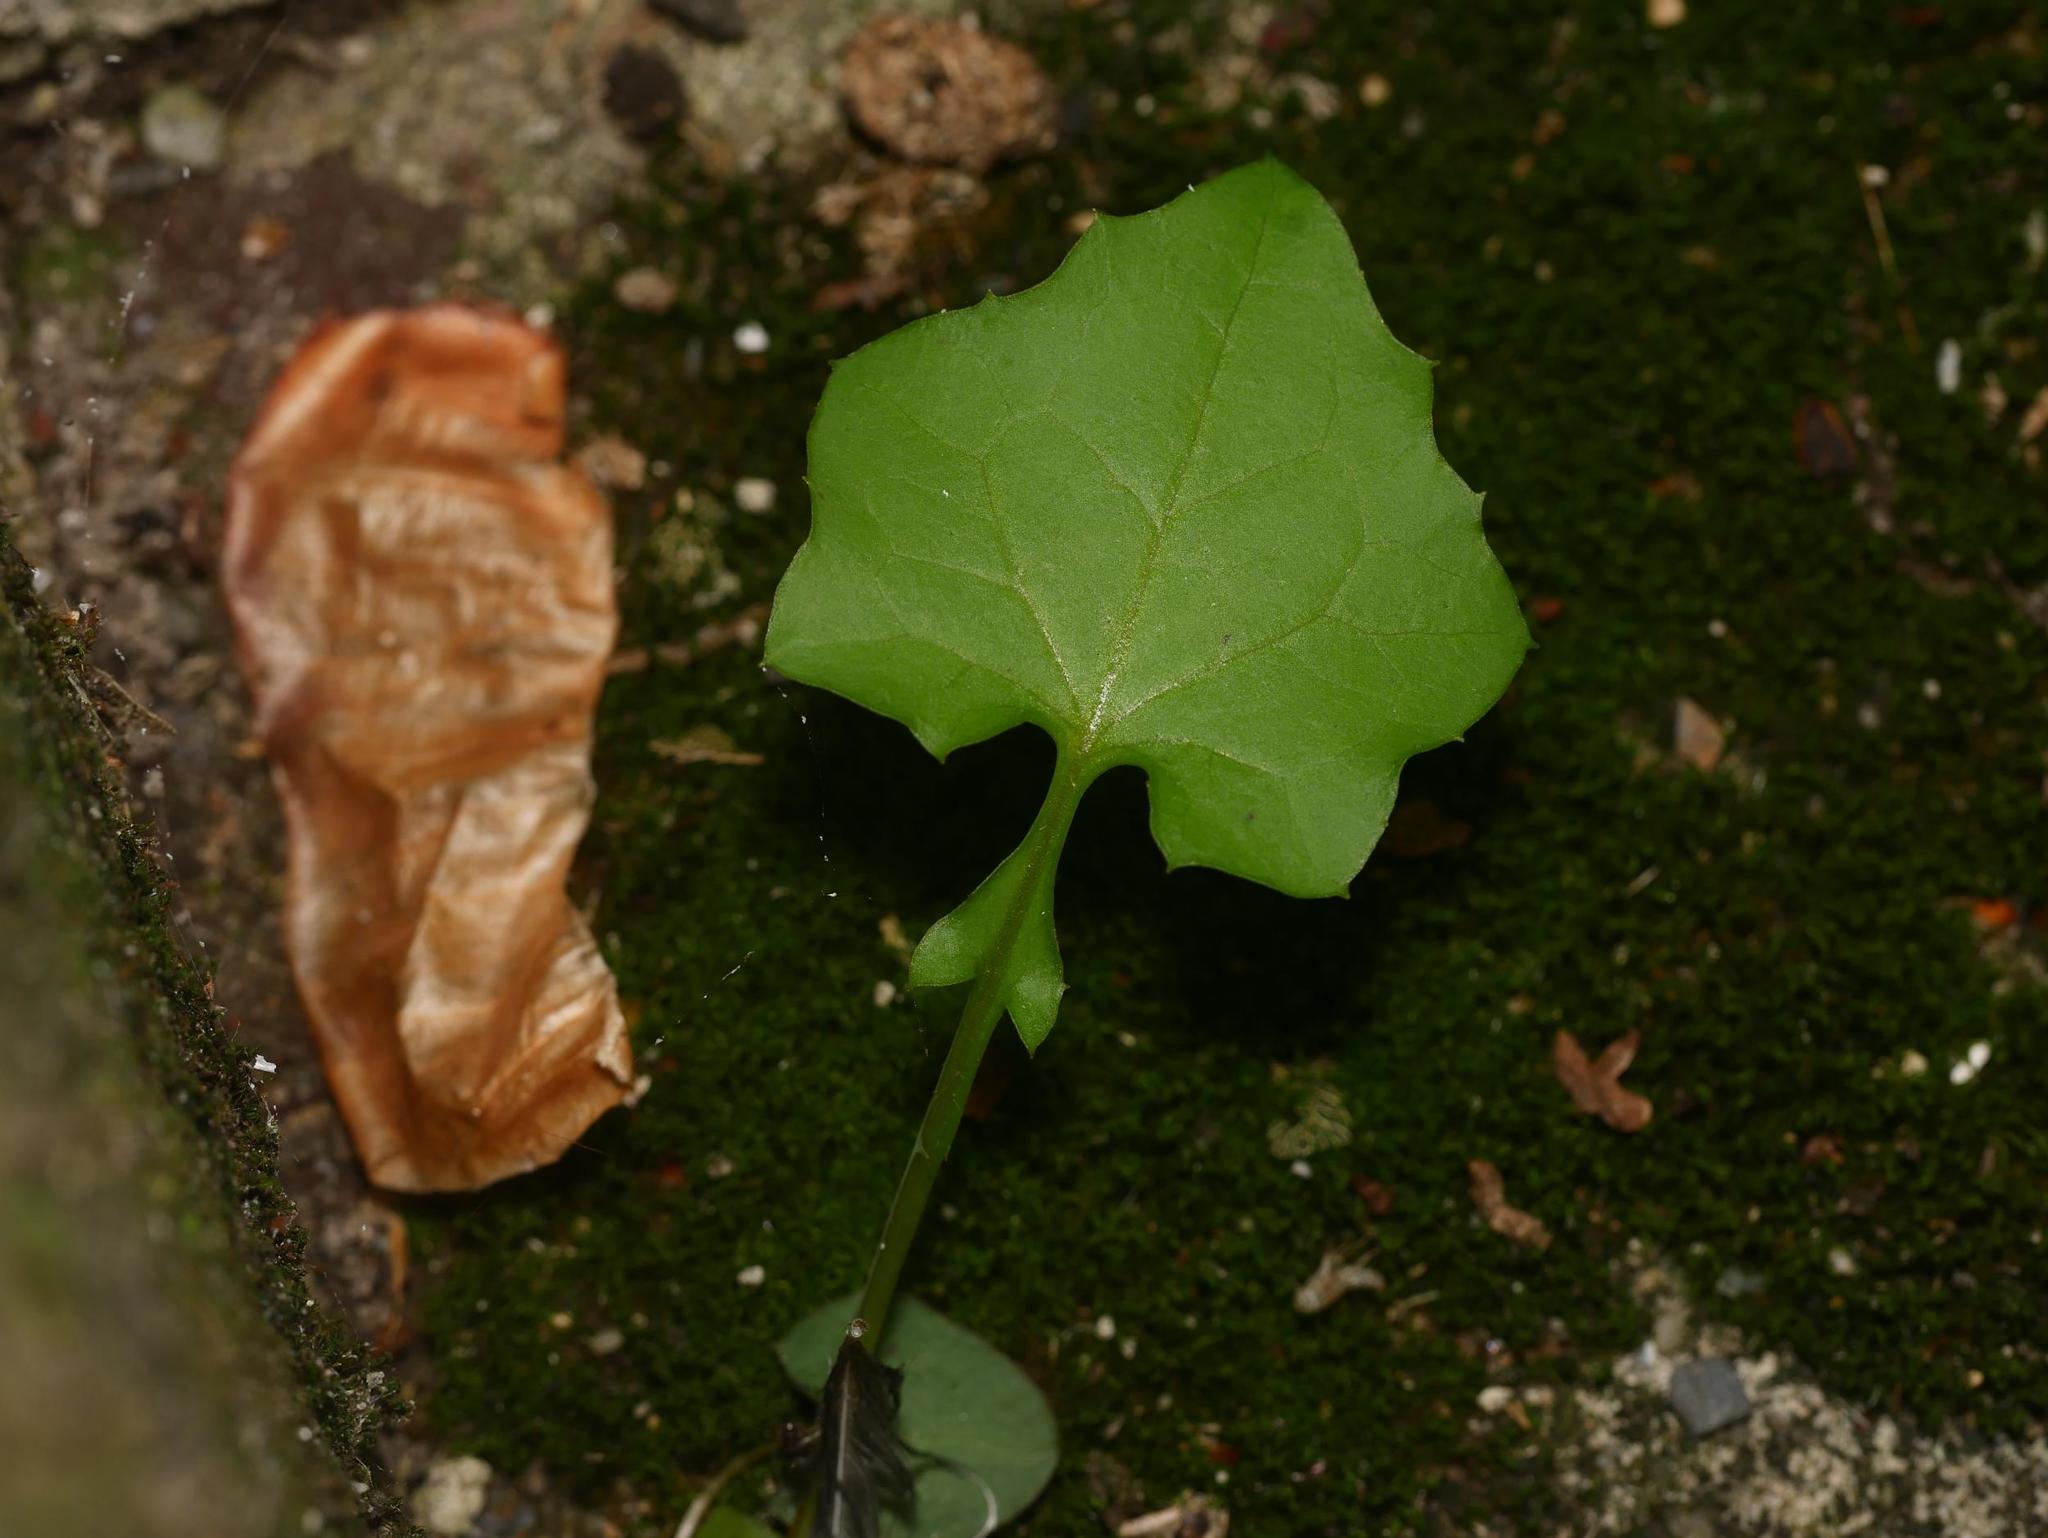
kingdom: Plantae
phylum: Tracheophyta
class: Magnoliopsida
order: Asterales
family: Asteraceae
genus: Mycelis
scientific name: Mycelis muralis
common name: Wall lettuce
